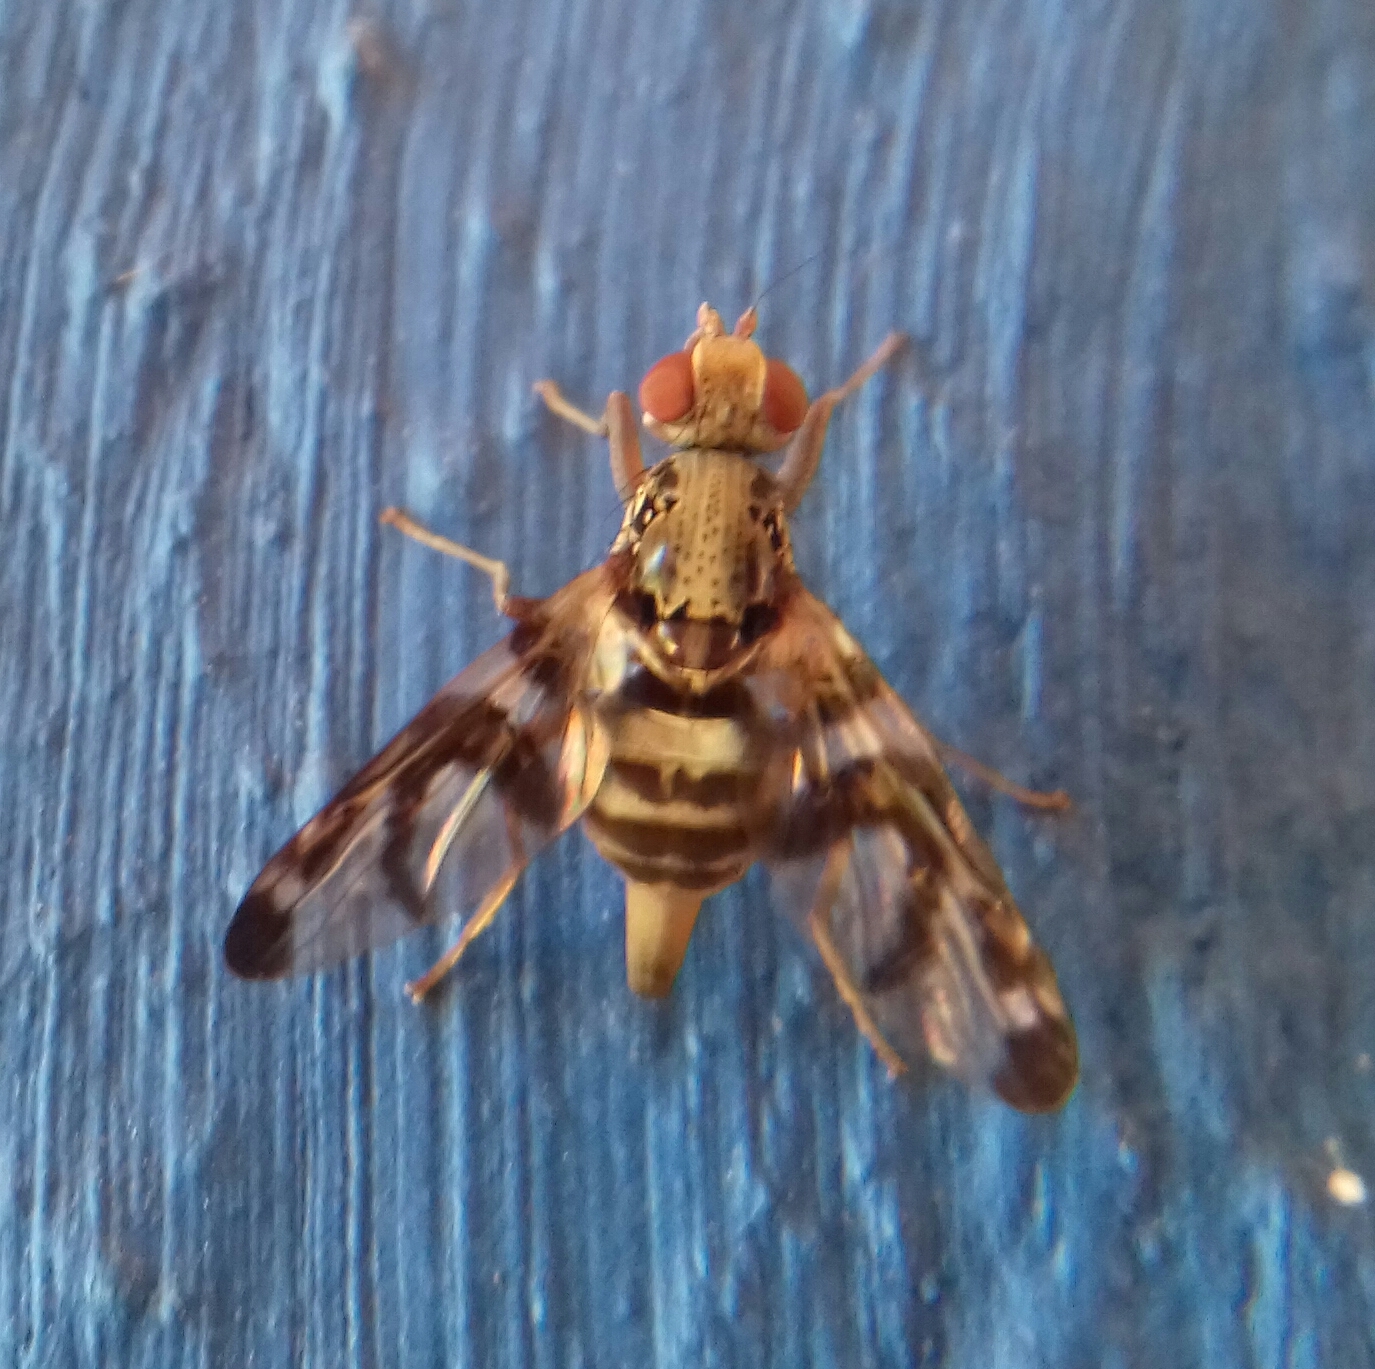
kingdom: Animalia
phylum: Arthropoda
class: Insecta
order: Diptera
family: Ulidiidae
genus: Pseudodyscrasis
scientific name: Pseudodyscrasis scutellaris
